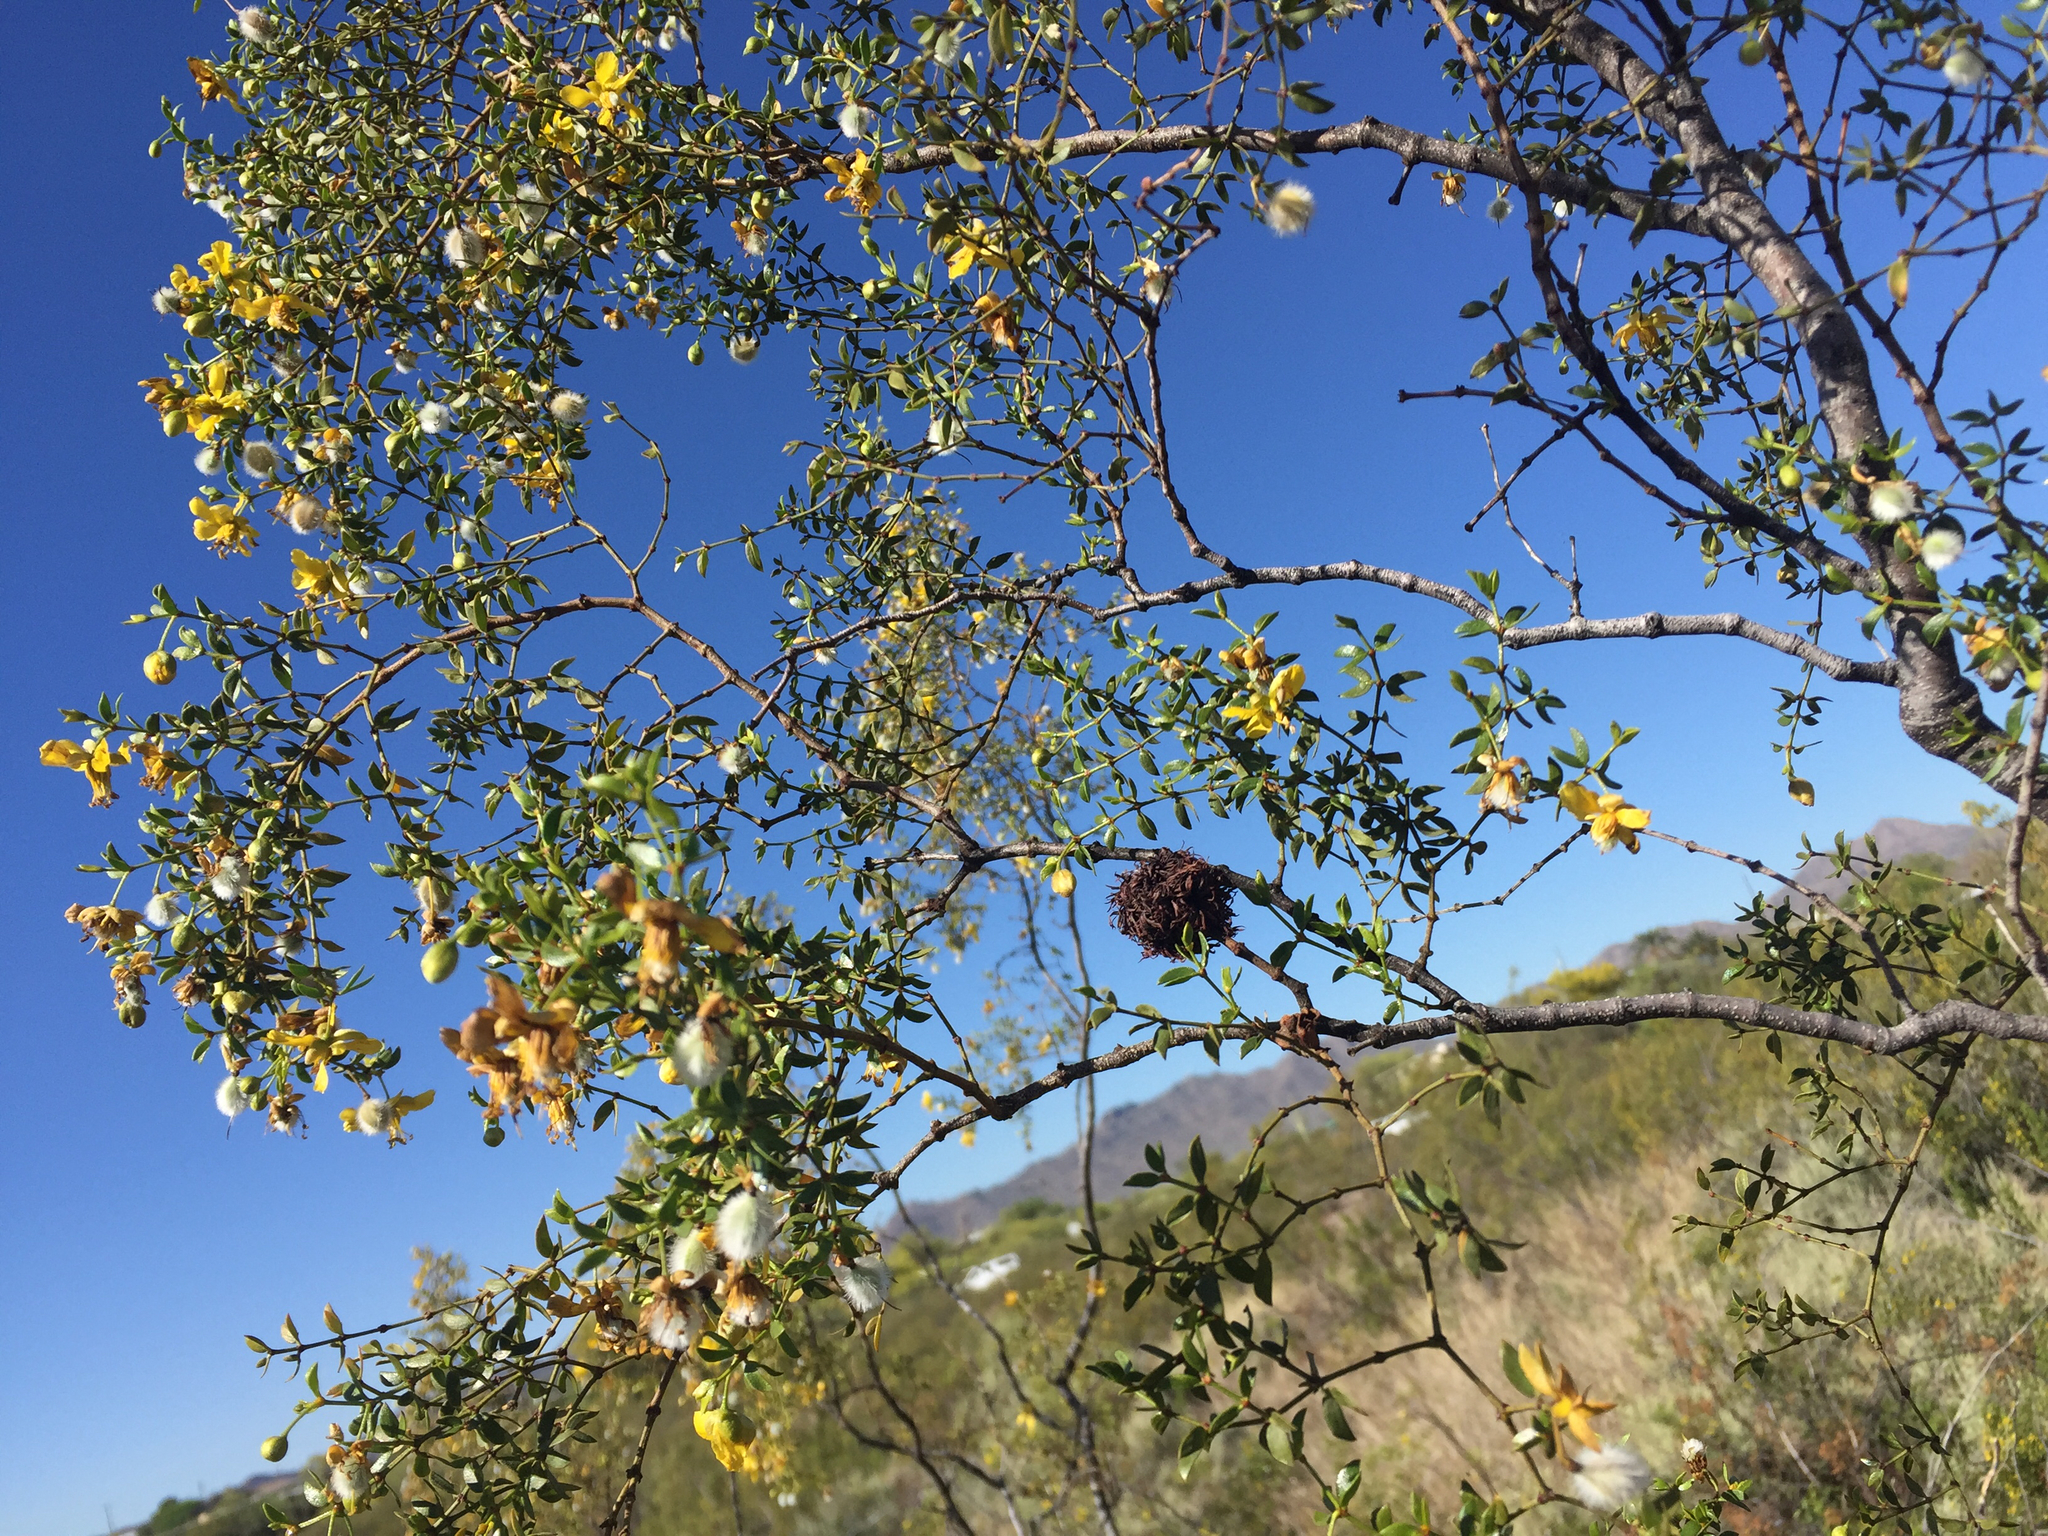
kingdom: Animalia
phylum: Arthropoda
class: Insecta
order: Diptera
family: Cecidomyiidae
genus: Asphondylia
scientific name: Asphondylia auripila
